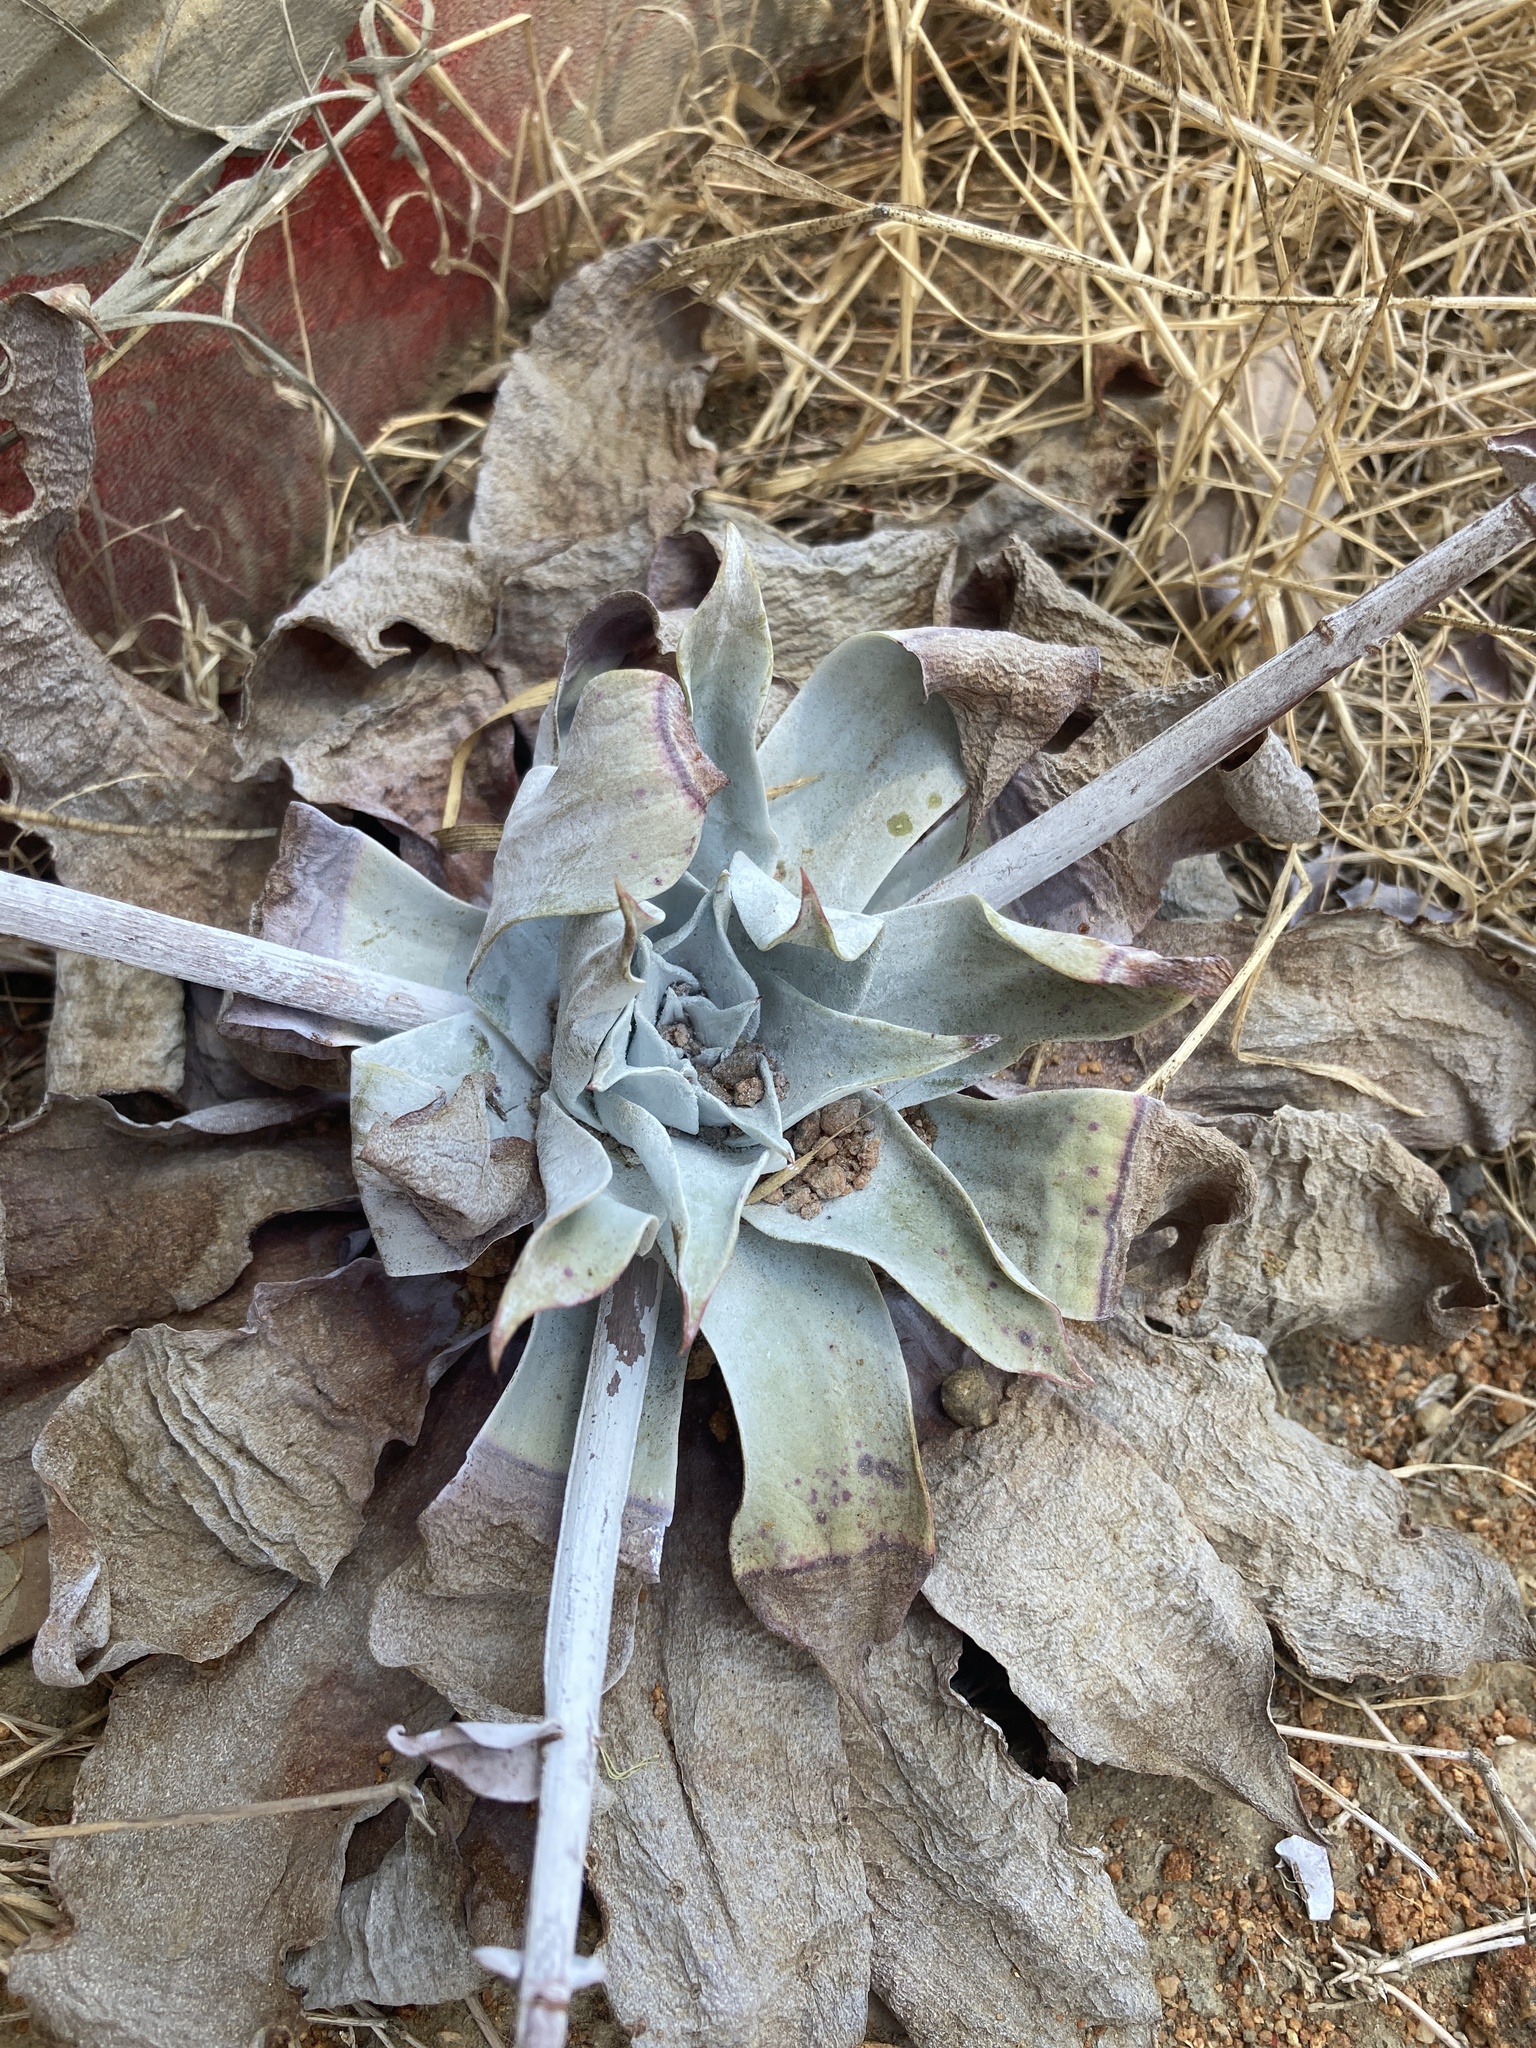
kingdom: Plantae
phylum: Tracheophyta
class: Magnoliopsida
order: Saxifragales
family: Crassulaceae
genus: Dudleya
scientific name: Dudleya pulverulenta
